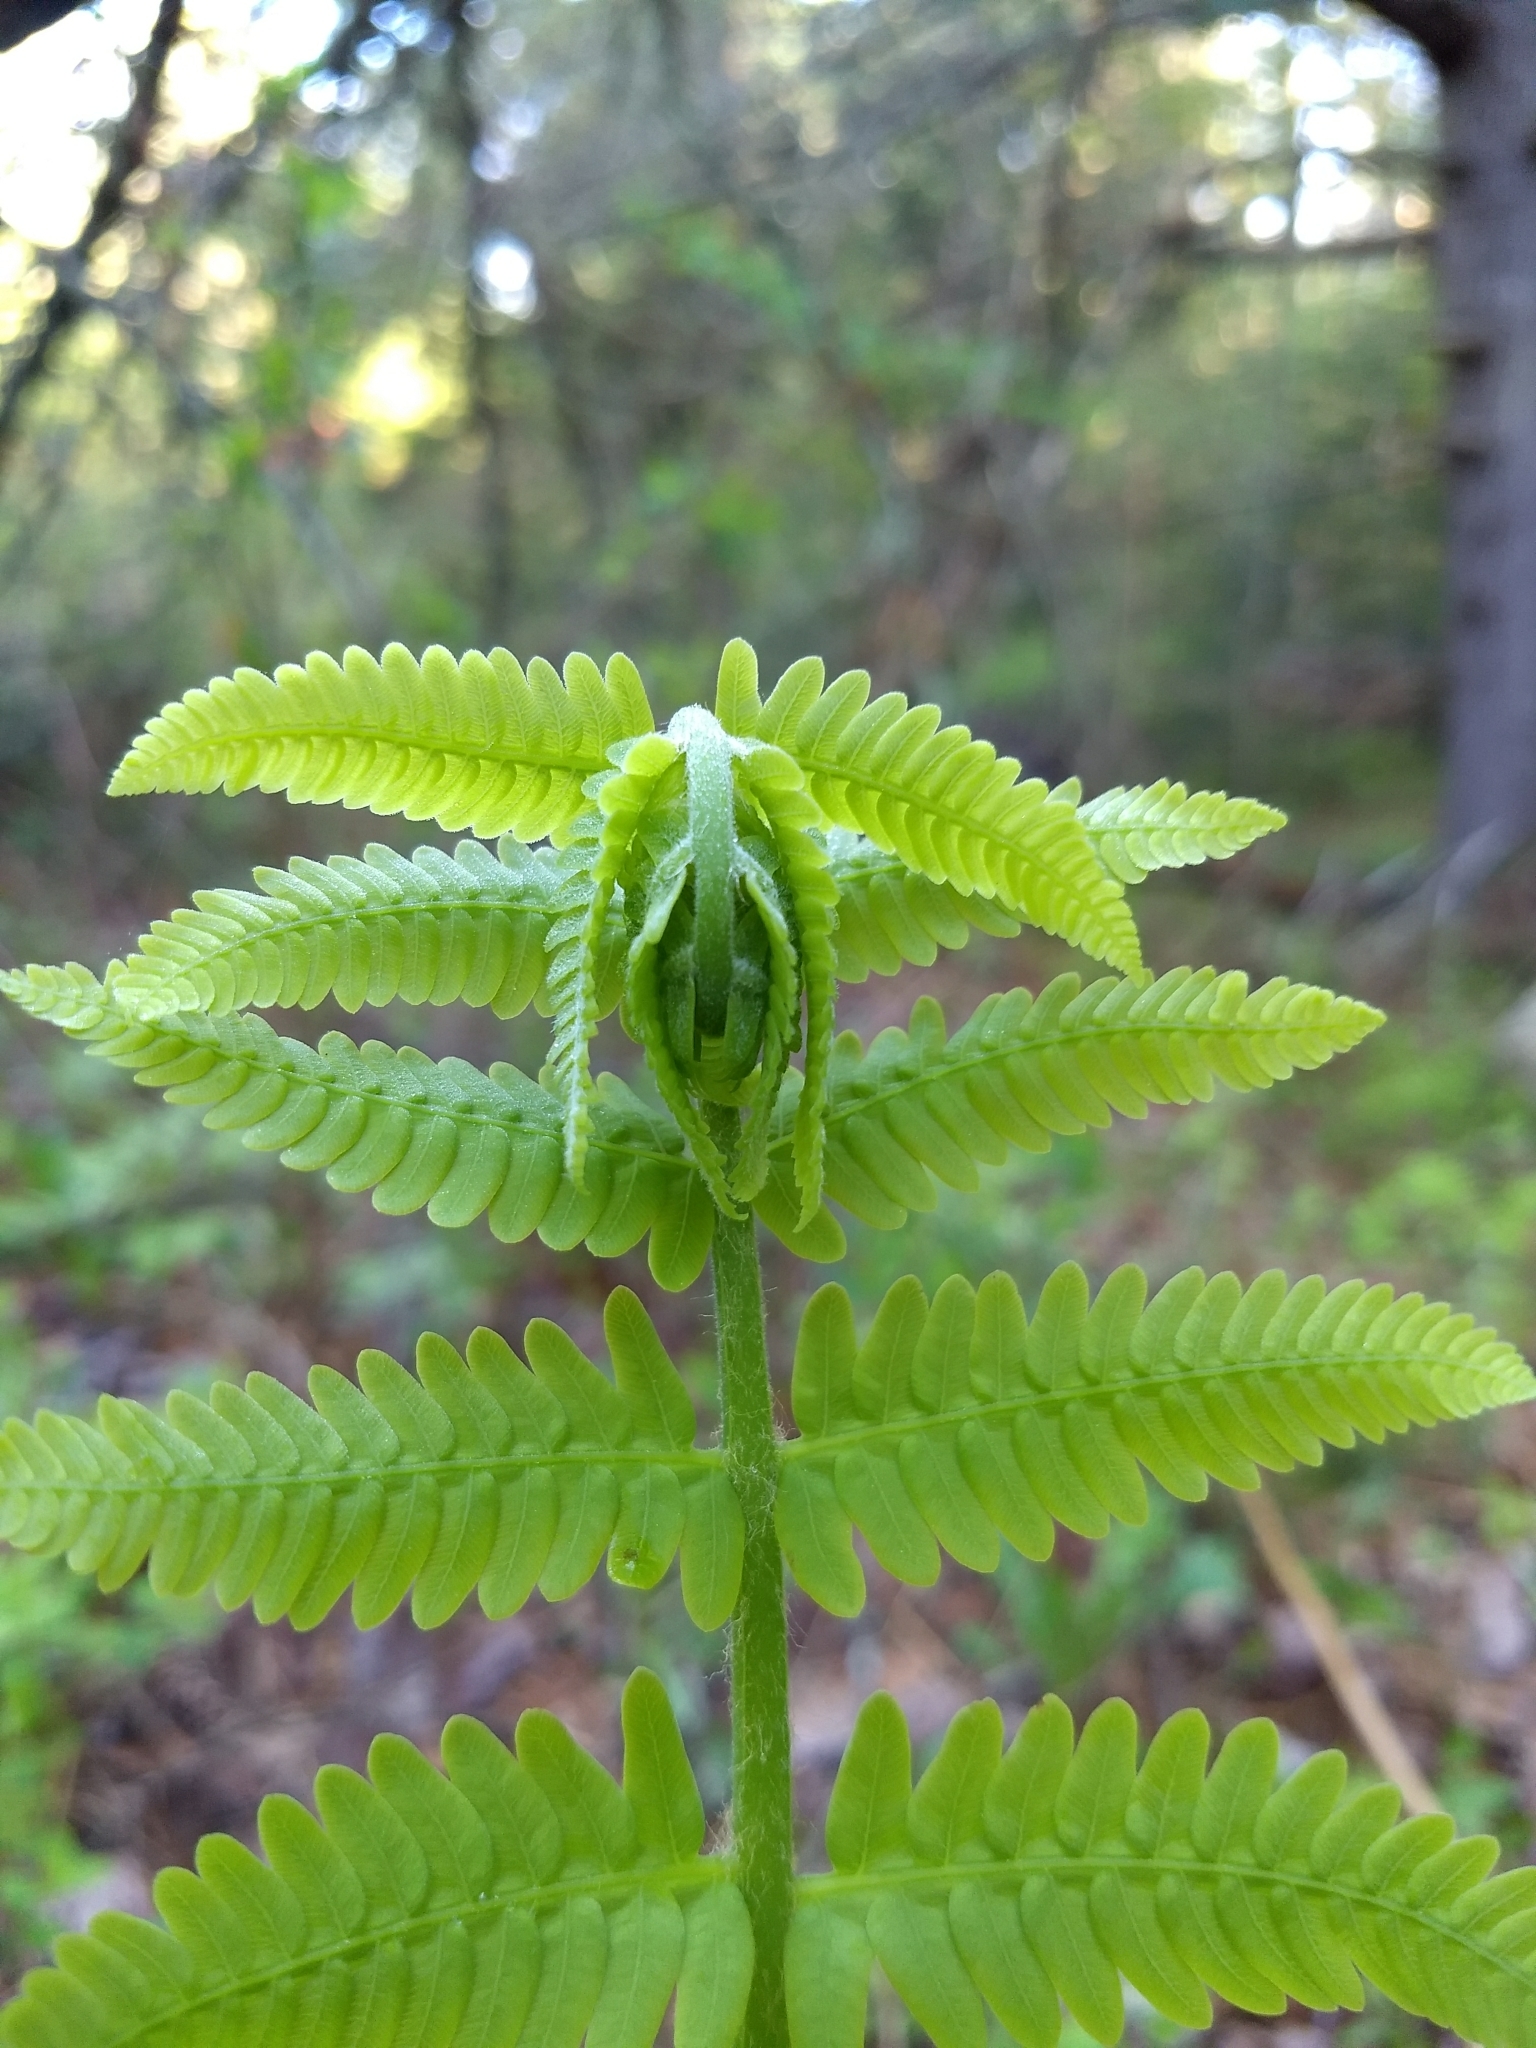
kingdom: Plantae
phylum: Tracheophyta
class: Polypodiopsida
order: Osmundales
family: Osmundaceae
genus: Osmundastrum
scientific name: Osmundastrum cinnamomeum
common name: Cinnamon fern
